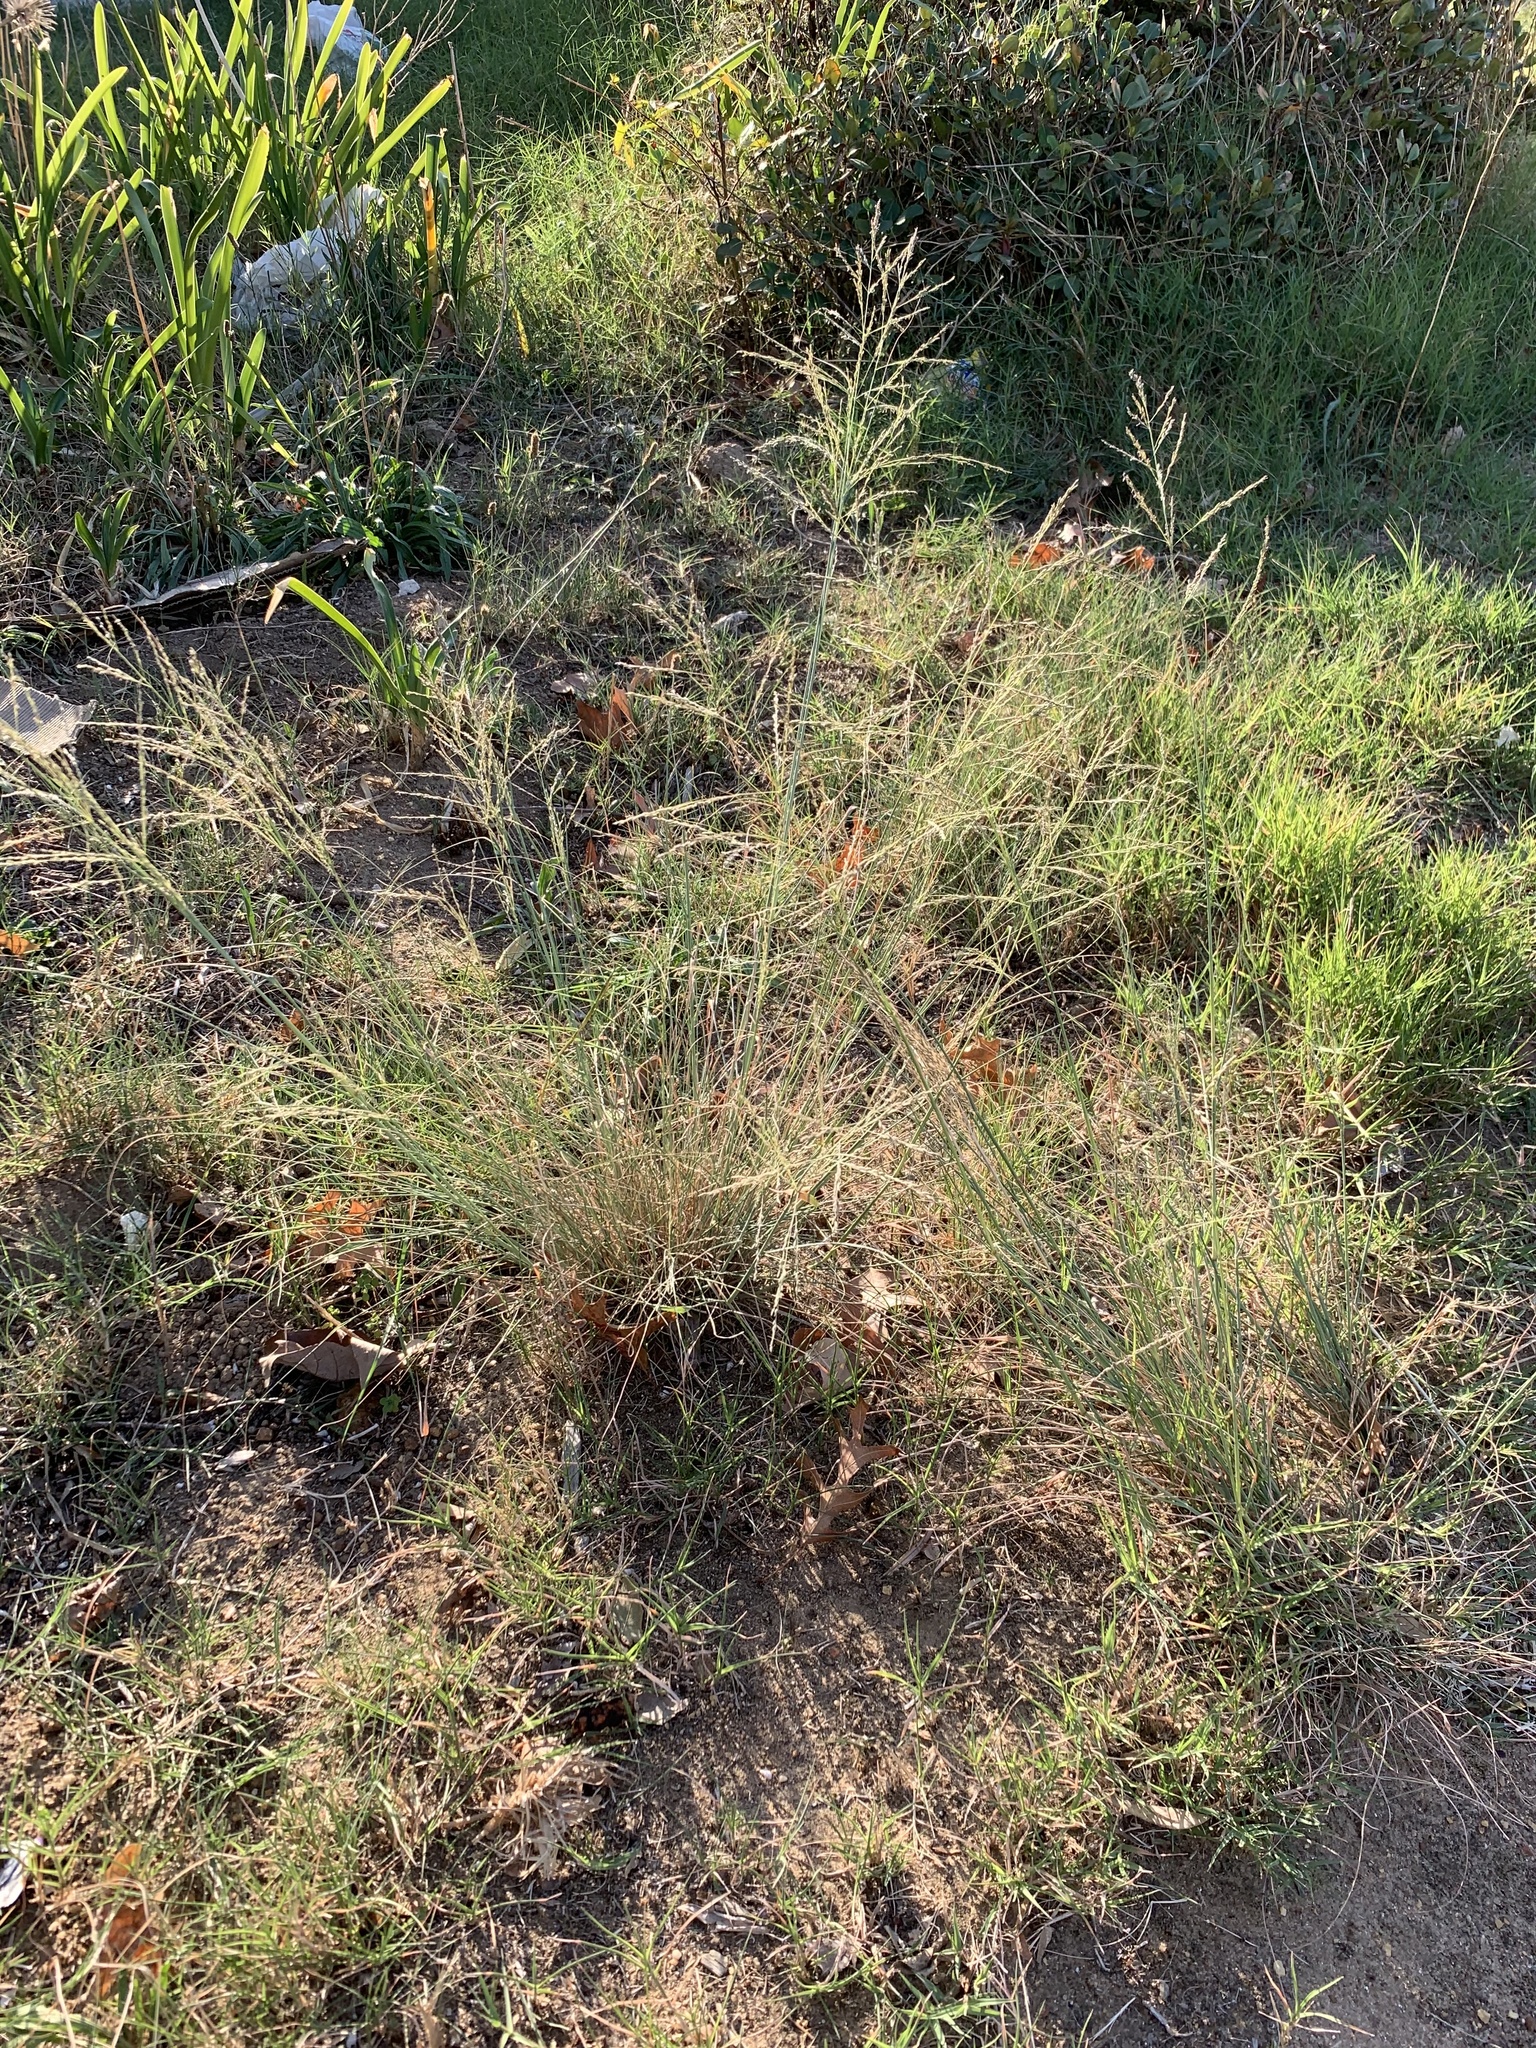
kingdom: Plantae
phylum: Tracheophyta
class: Liliopsida
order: Poales
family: Poaceae
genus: Eragrostis
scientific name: Eragrostis curvula
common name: African love-grass
